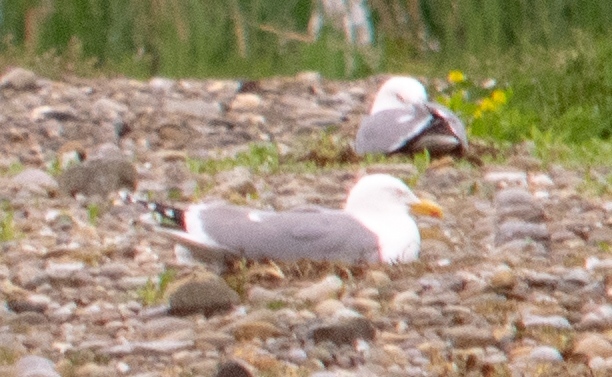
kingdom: Animalia
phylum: Chordata
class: Aves
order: Charadriiformes
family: Laridae
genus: Larus
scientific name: Larus michahellis
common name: Yellow-legged gull
